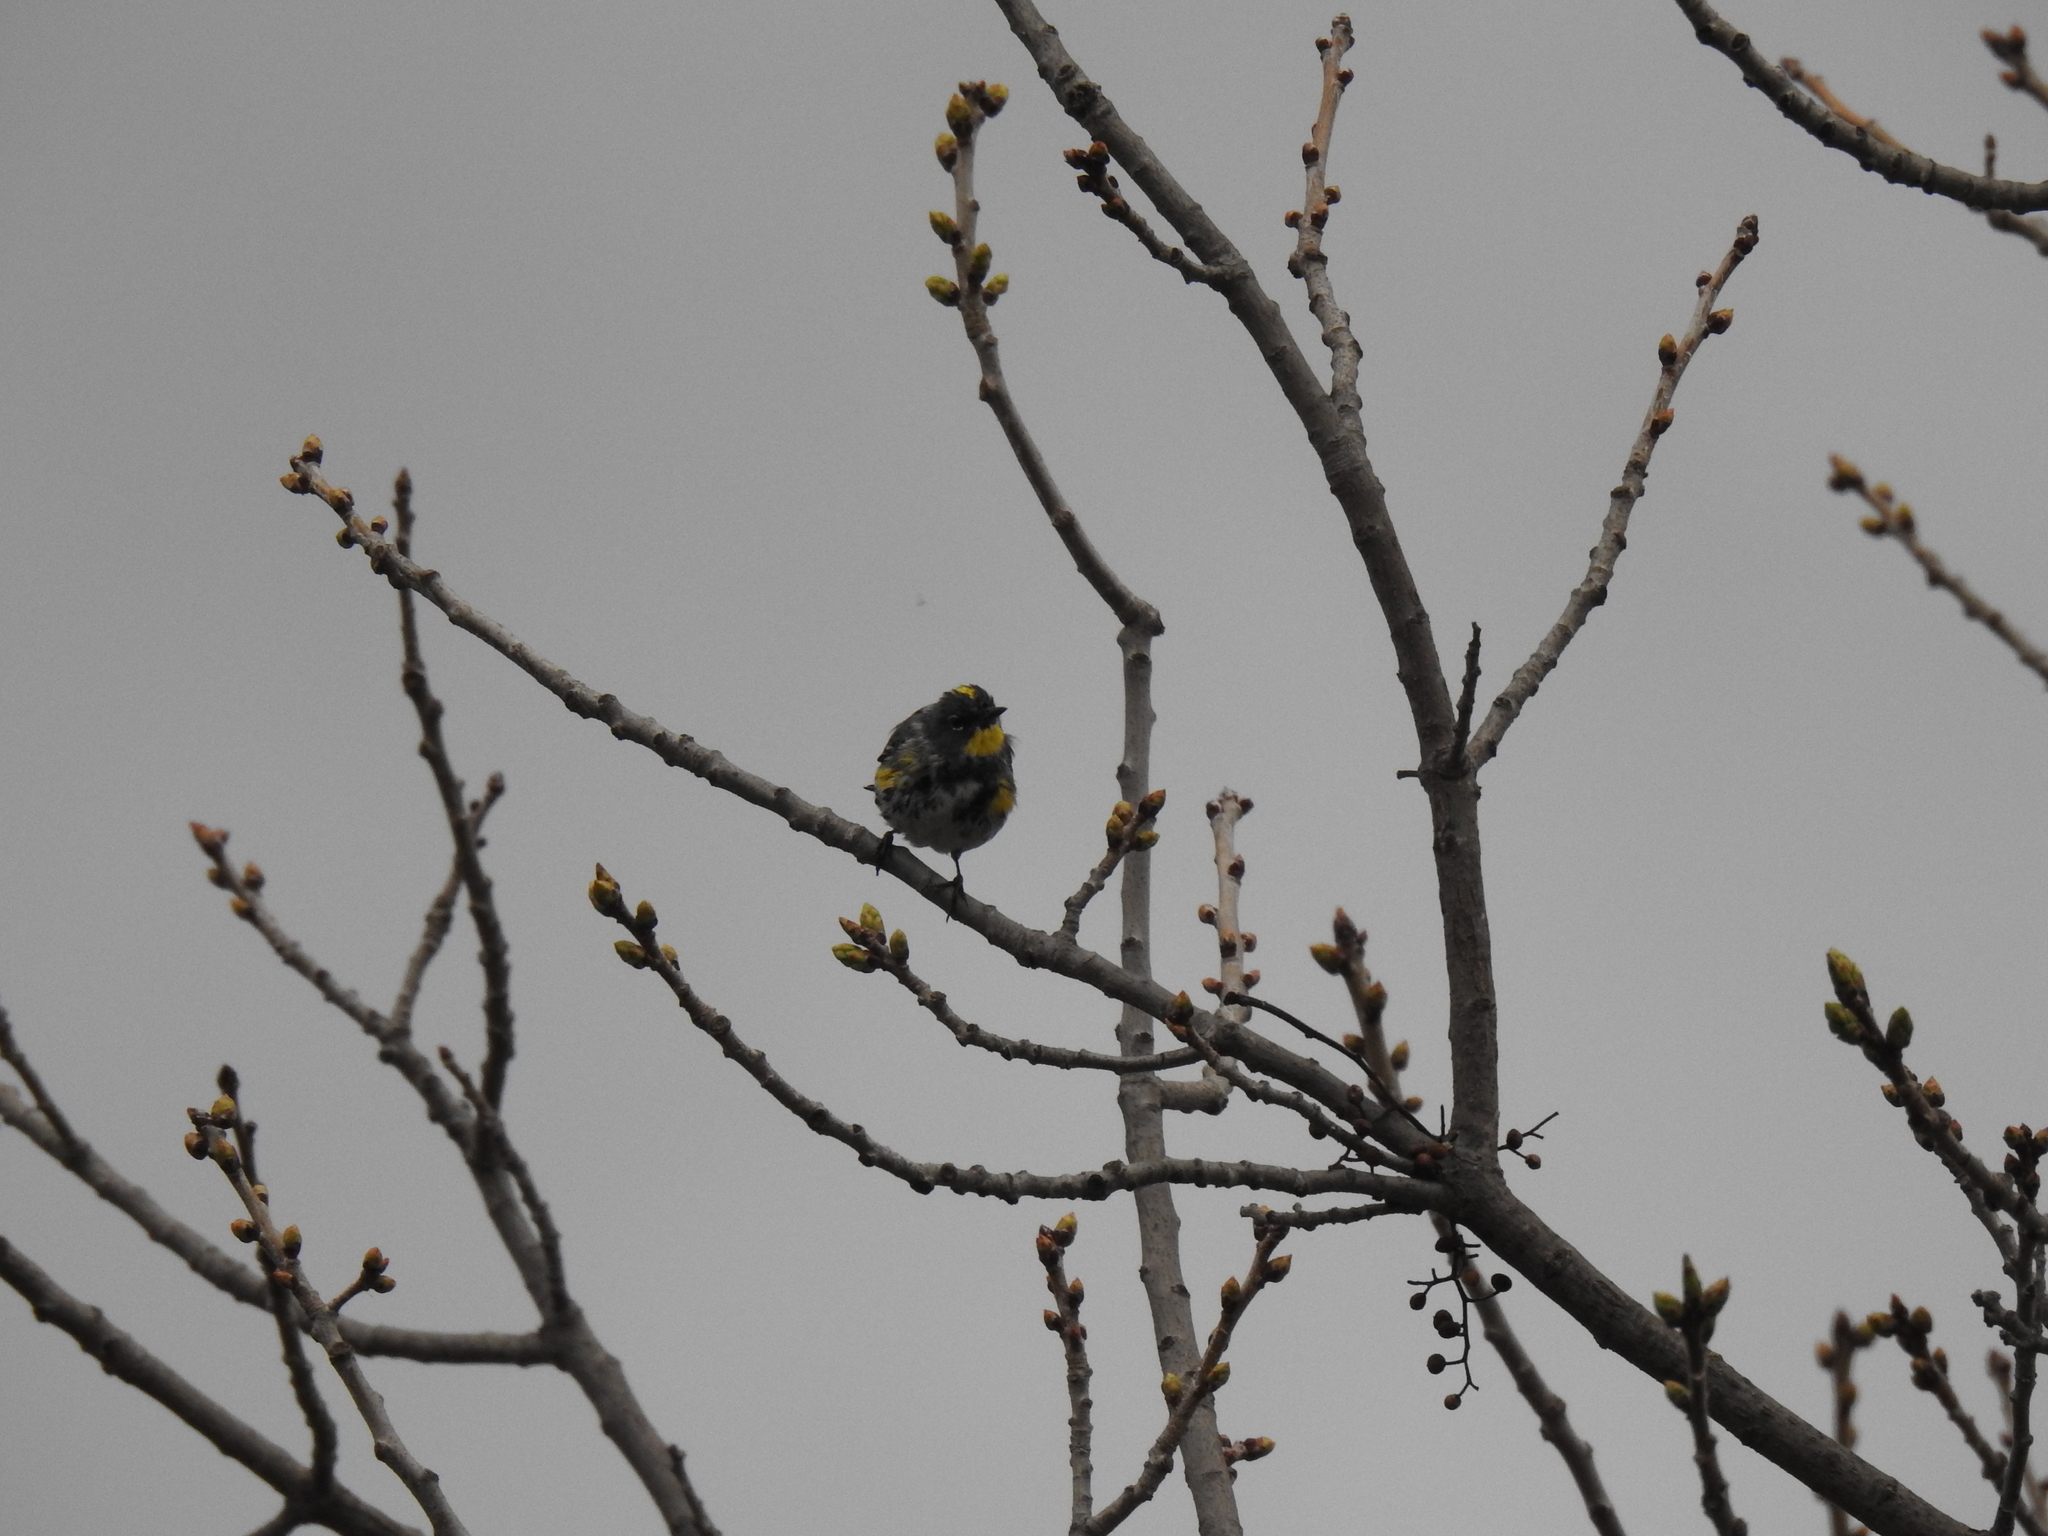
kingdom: Animalia
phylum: Chordata
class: Aves
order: Passeriformes
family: Parulidae
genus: Setophaga
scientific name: Setophaga coronata
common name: Myrtle warbler
